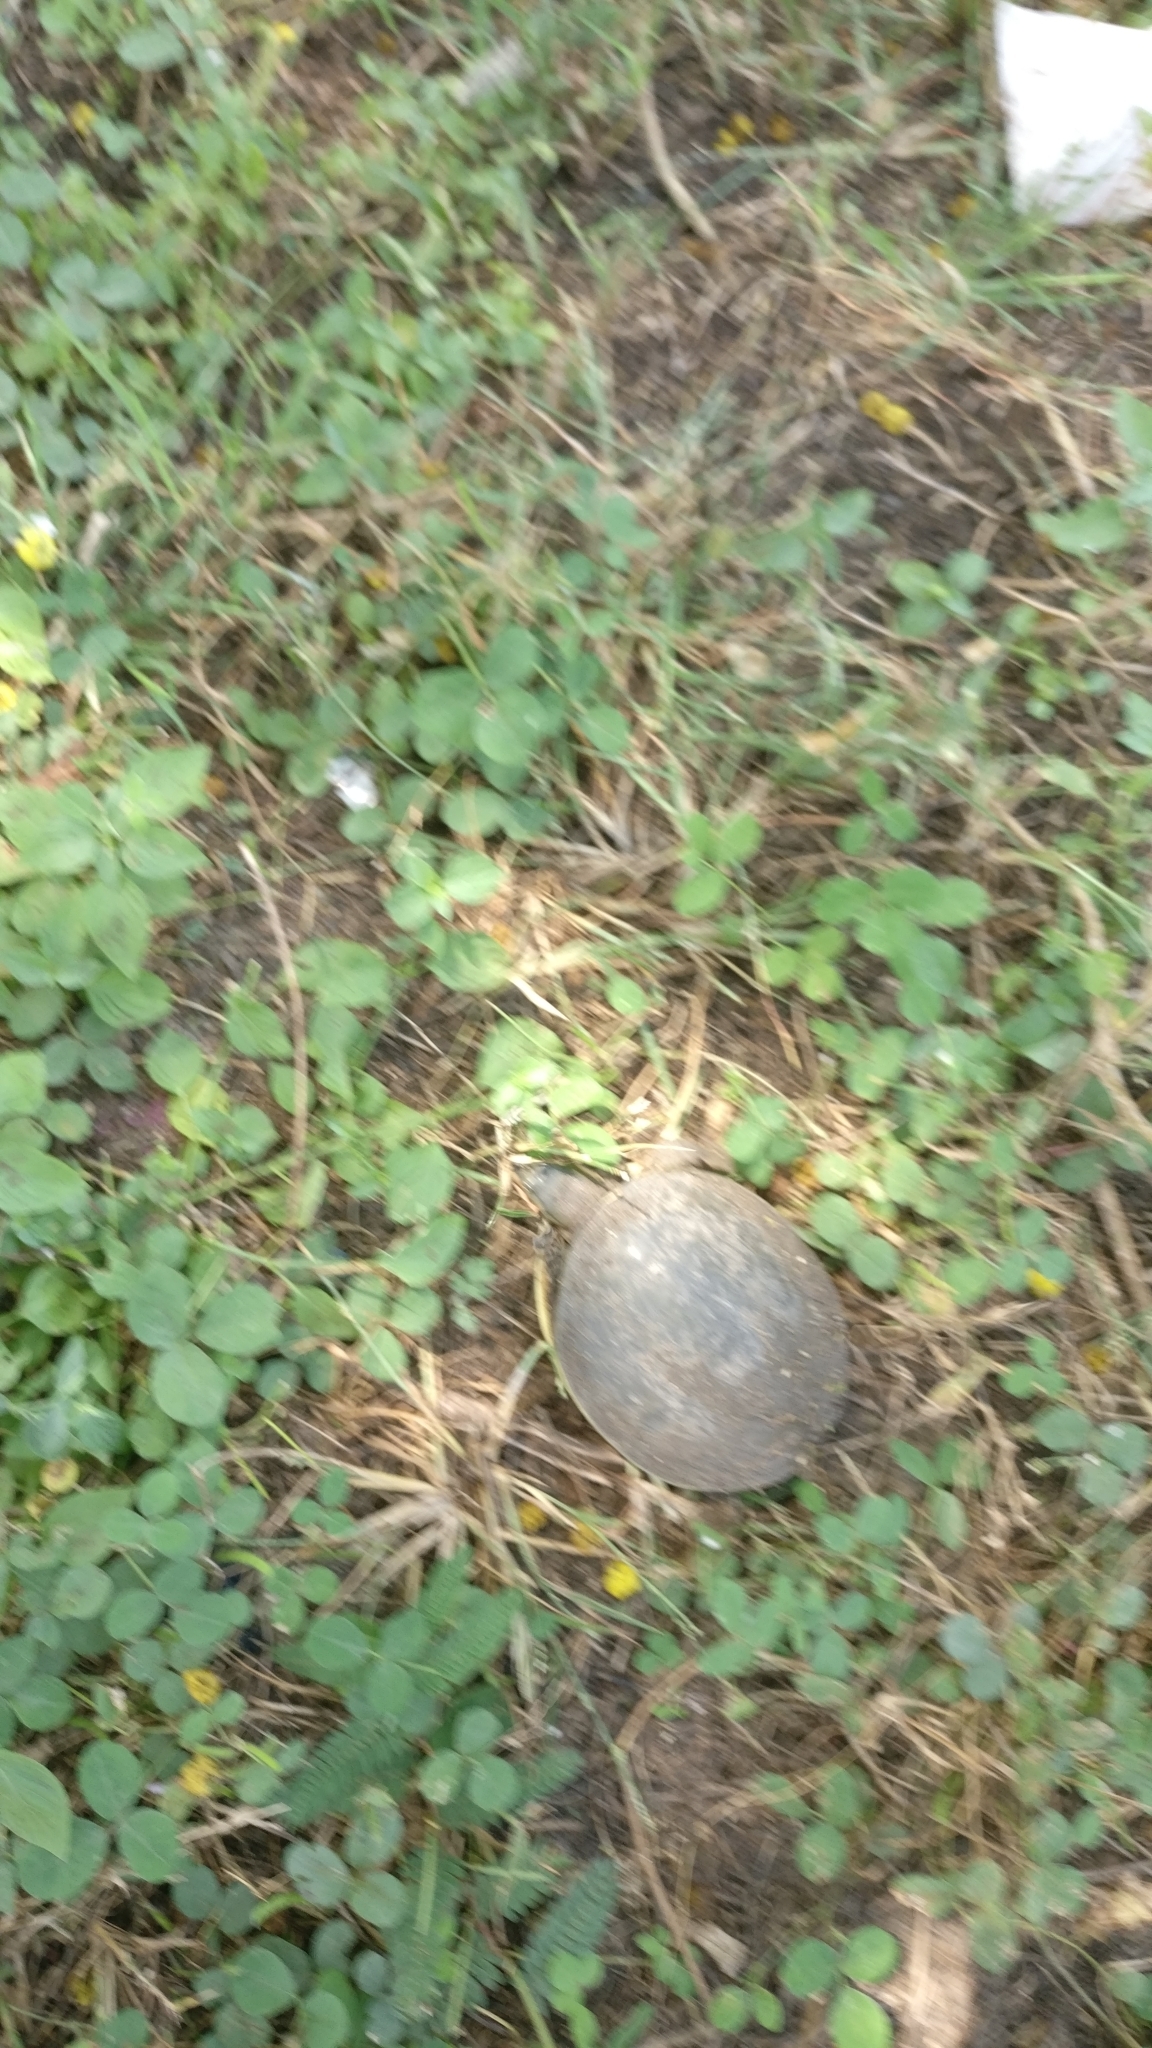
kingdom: Animalia
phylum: Chordata
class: Testudines
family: Trionychidae
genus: Lissemys
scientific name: Lissemys punctata
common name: Indian flap-shelled turtle
